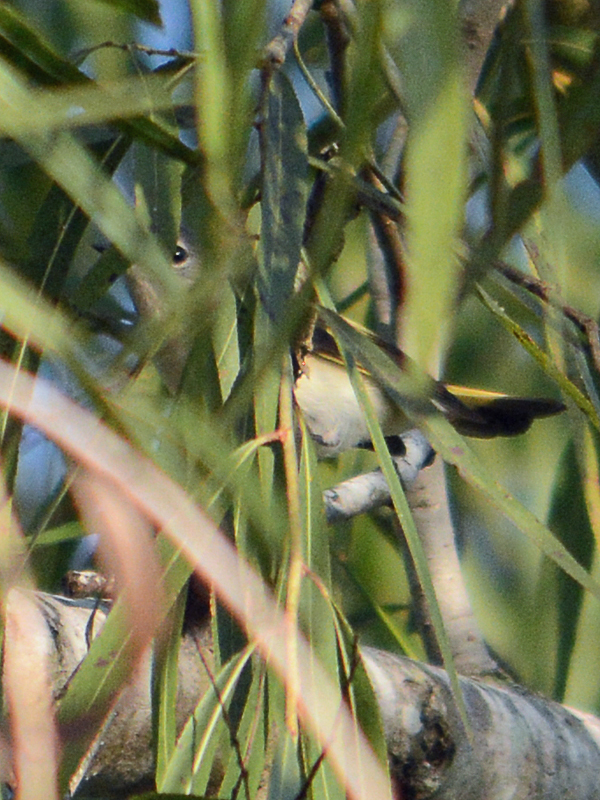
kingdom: Animalia
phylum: Chordata
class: Aves
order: Passeriformes
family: Parulidae
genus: Setophaga
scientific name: Setophaga ruticilla
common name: American redstart
